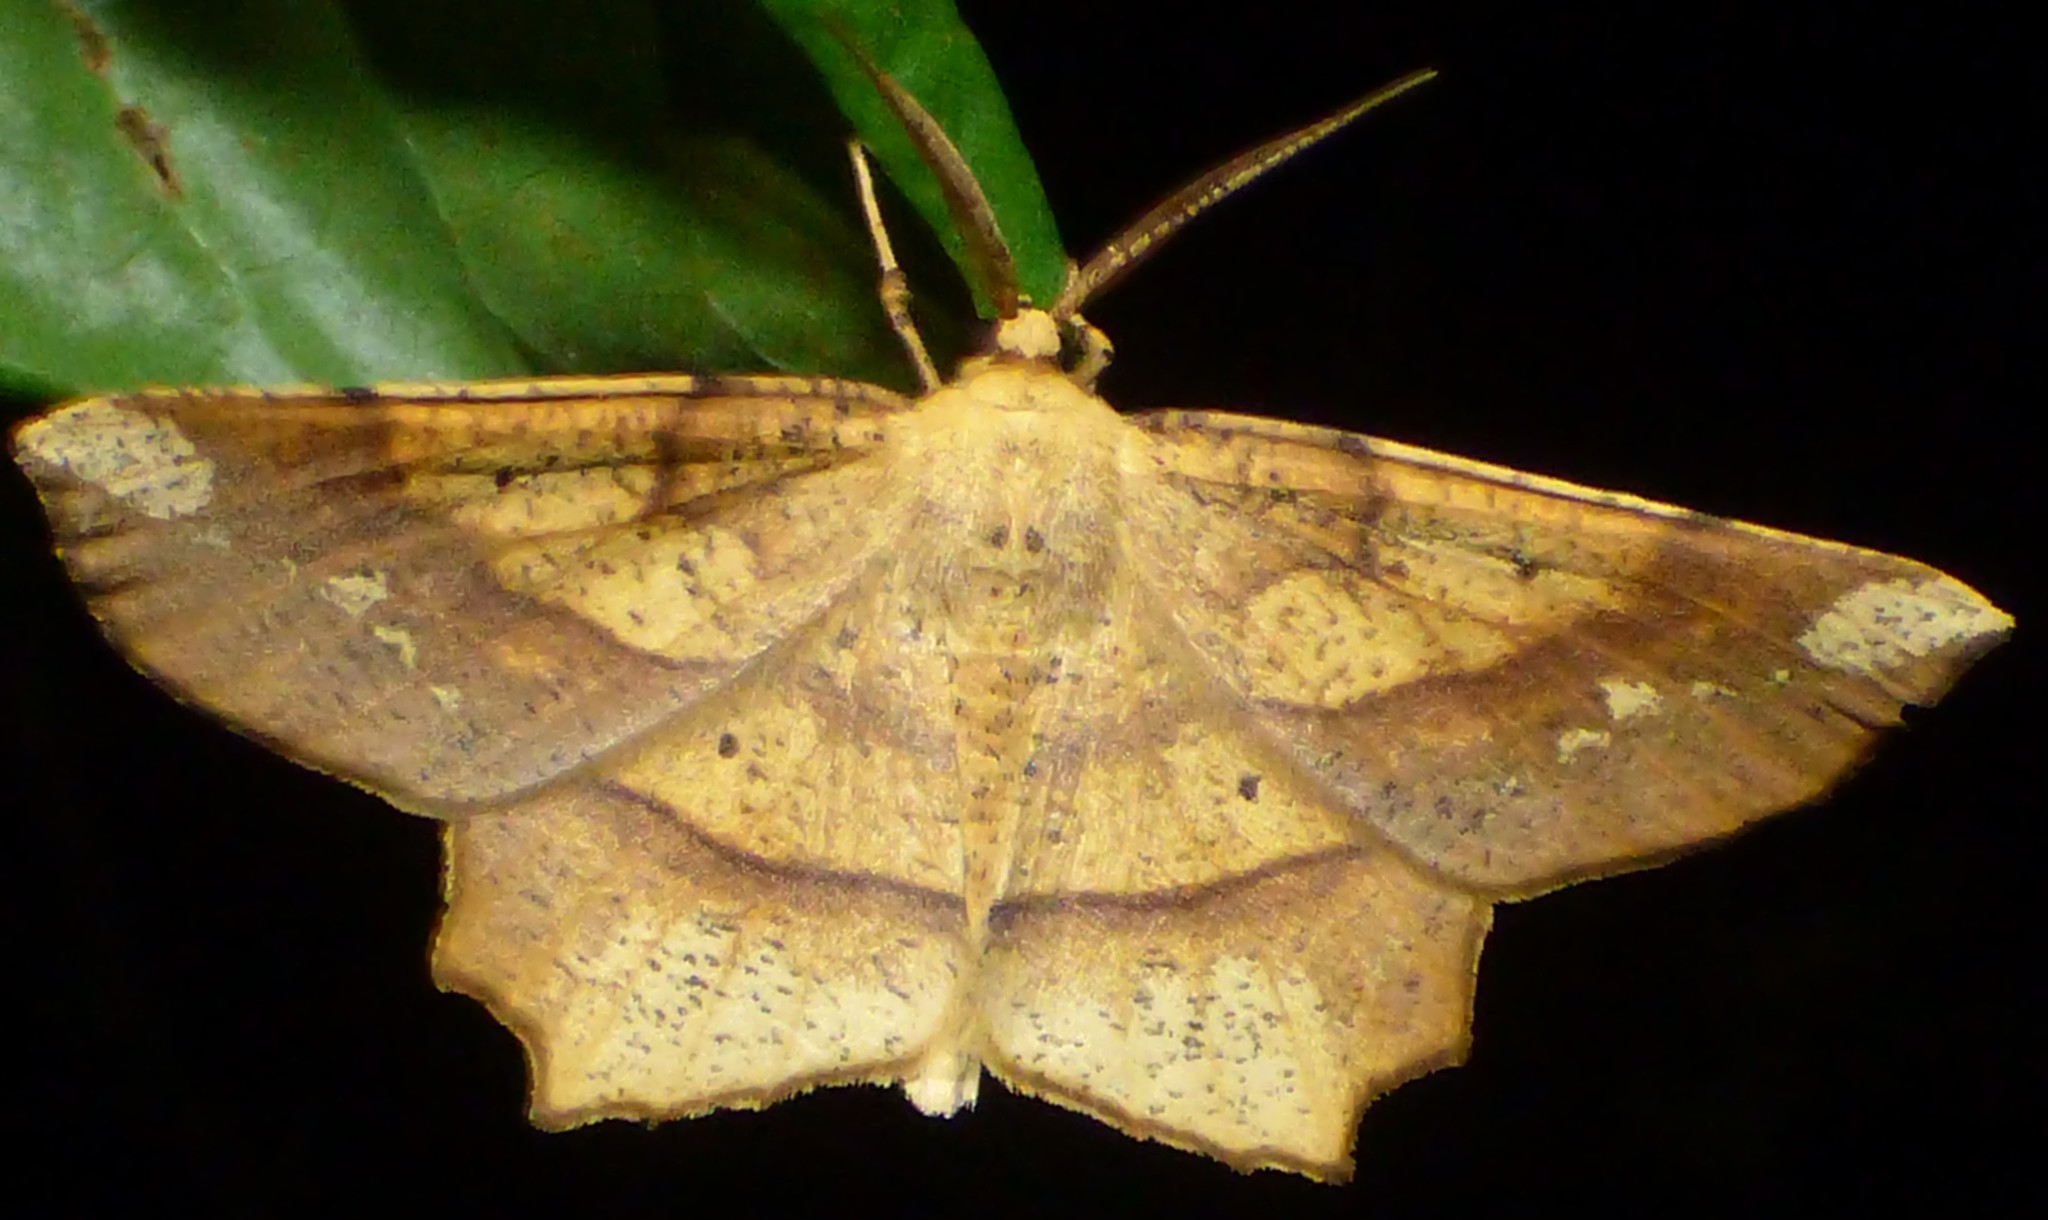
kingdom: Animalia
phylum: Arthropoda
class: Insecta
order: Lepidoptera
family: Geometridae
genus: Euchlaena
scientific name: Euchlaena amoenaria
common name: Deep yellow euchlaena
